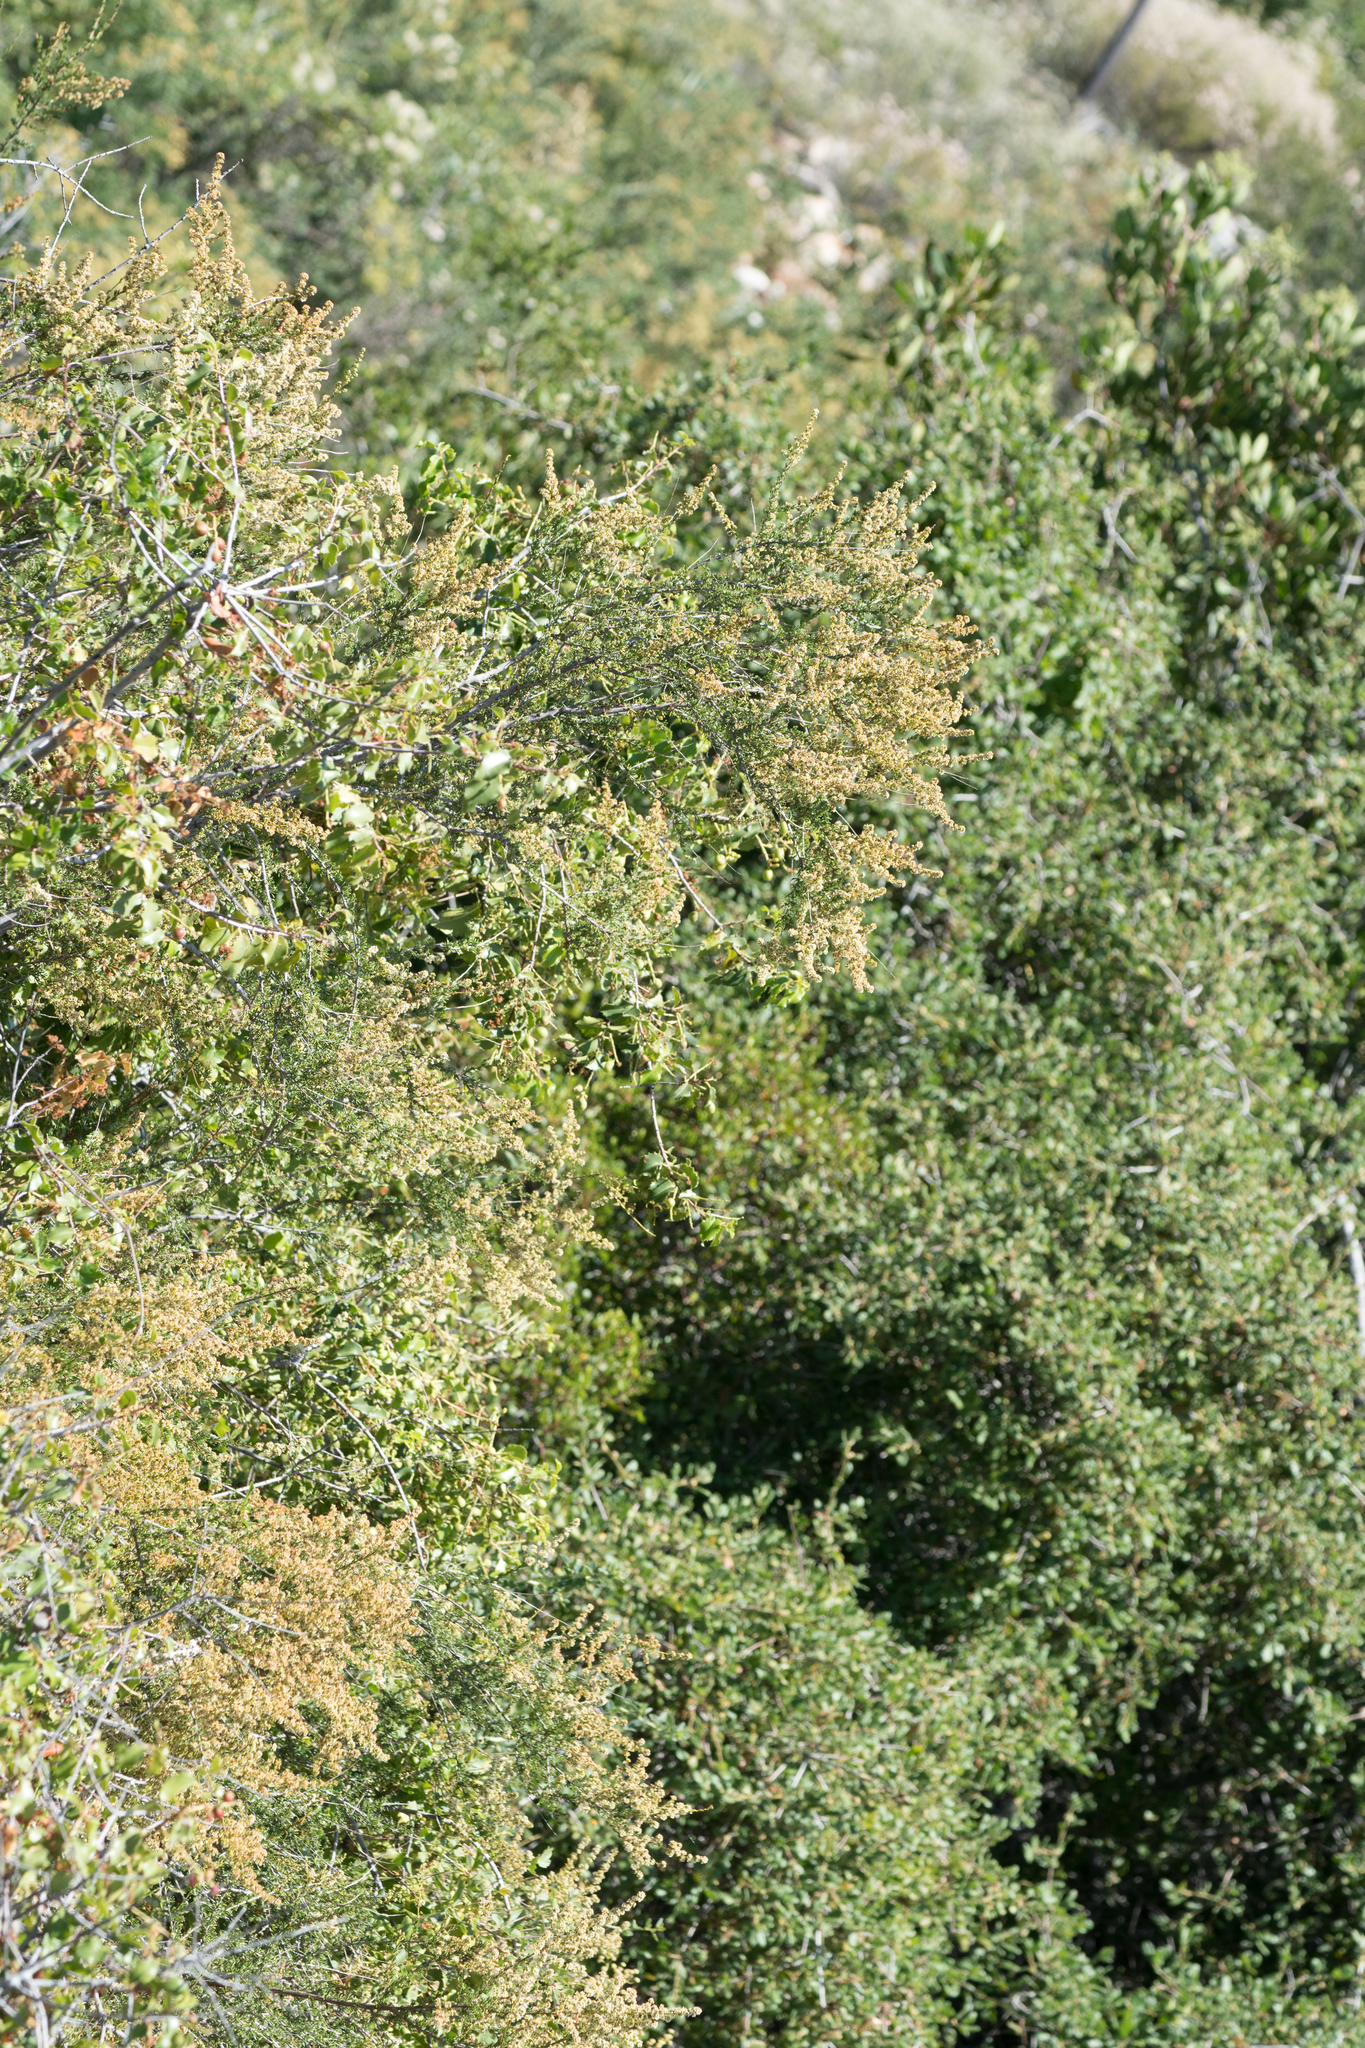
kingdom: Plantae
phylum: Tracheophyta
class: Magnoliopsida
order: Rosales
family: Rosaceae
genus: Adenostoma
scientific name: Adenostoma fasciculatum
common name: Chamise
